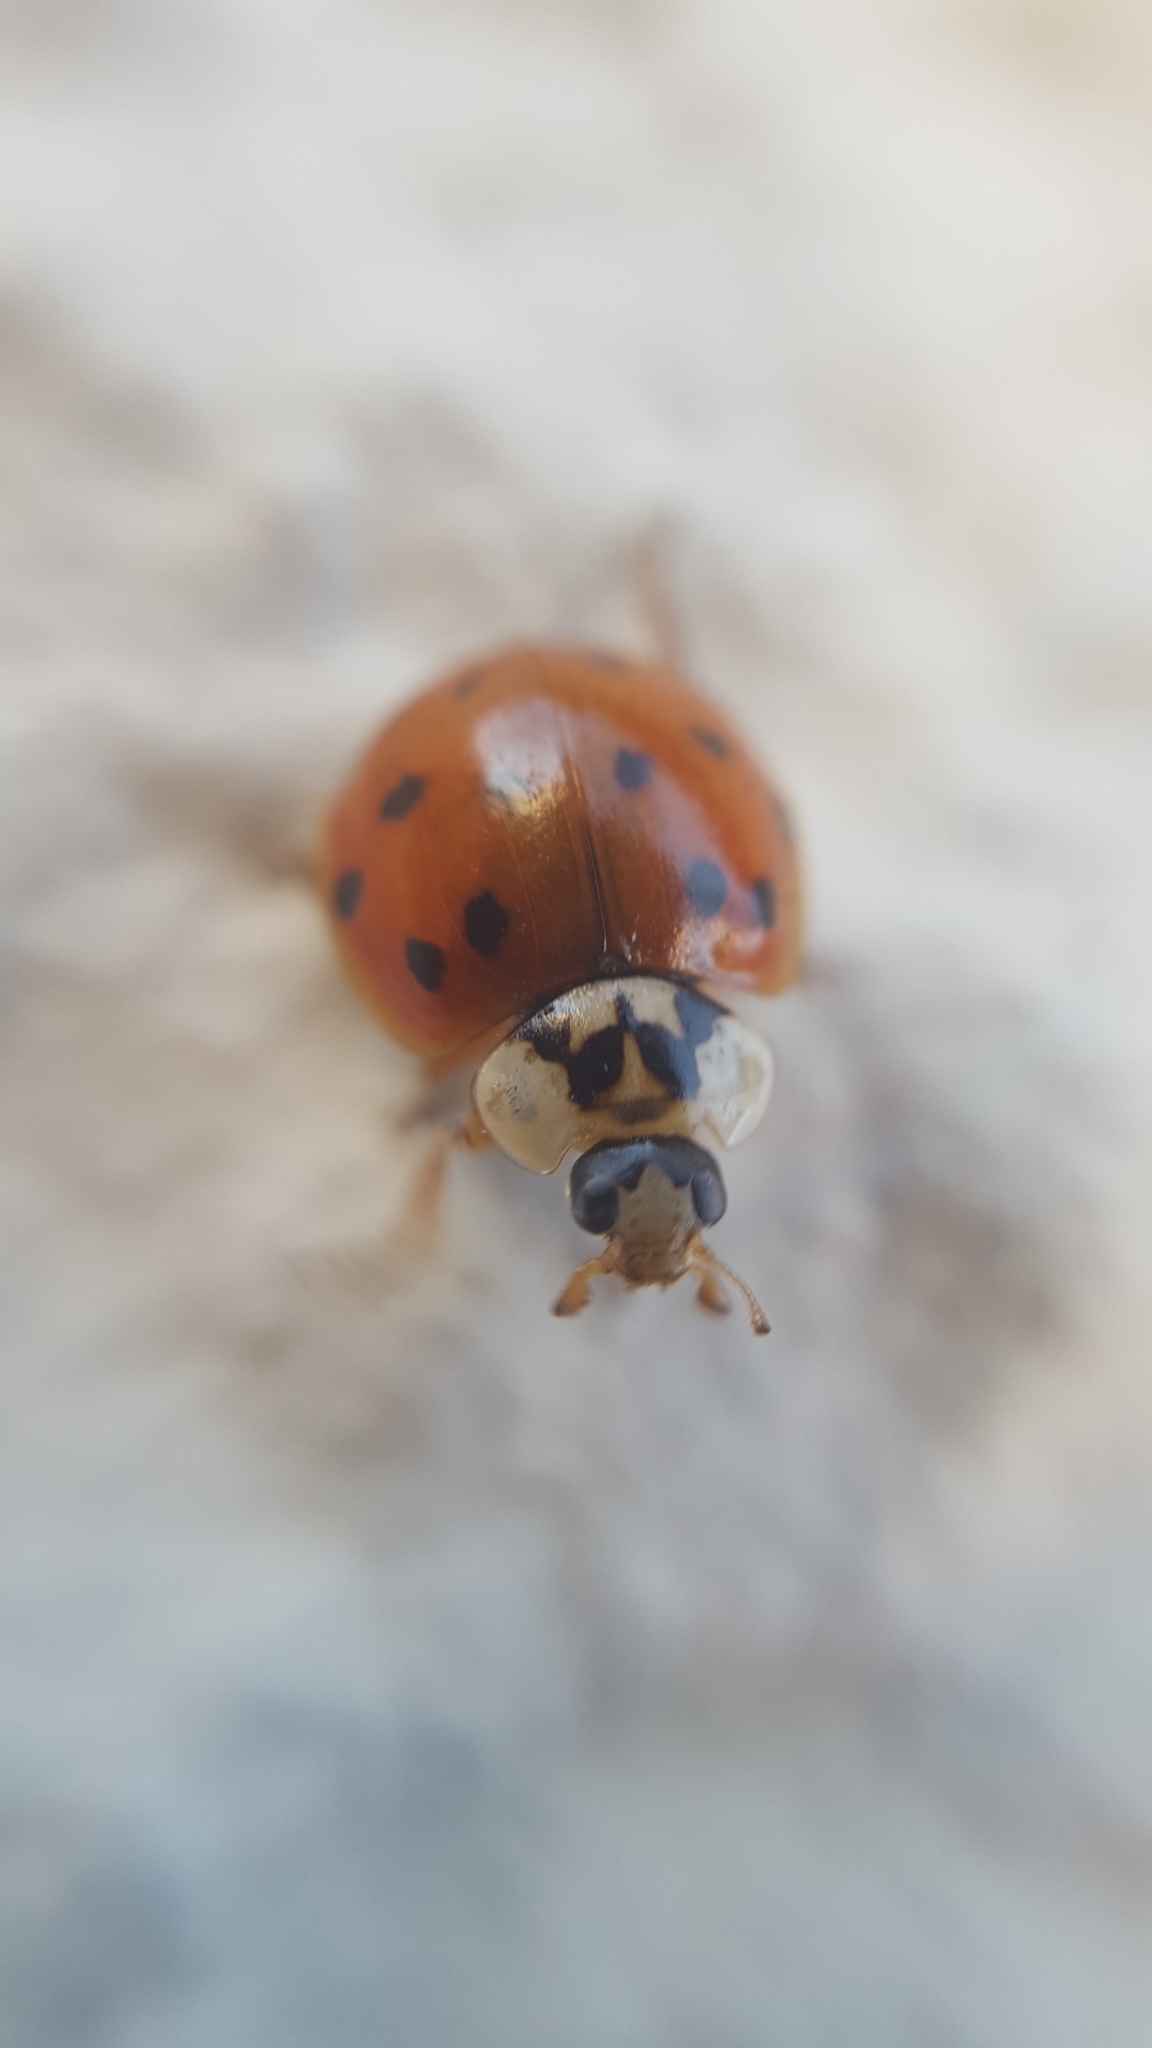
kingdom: Animalia
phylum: Arthropoda
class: Insecta
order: Coleoptera
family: Coccinellidae
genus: Harmonia
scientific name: Harmonia axyridis
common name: Harlequin ladybird
